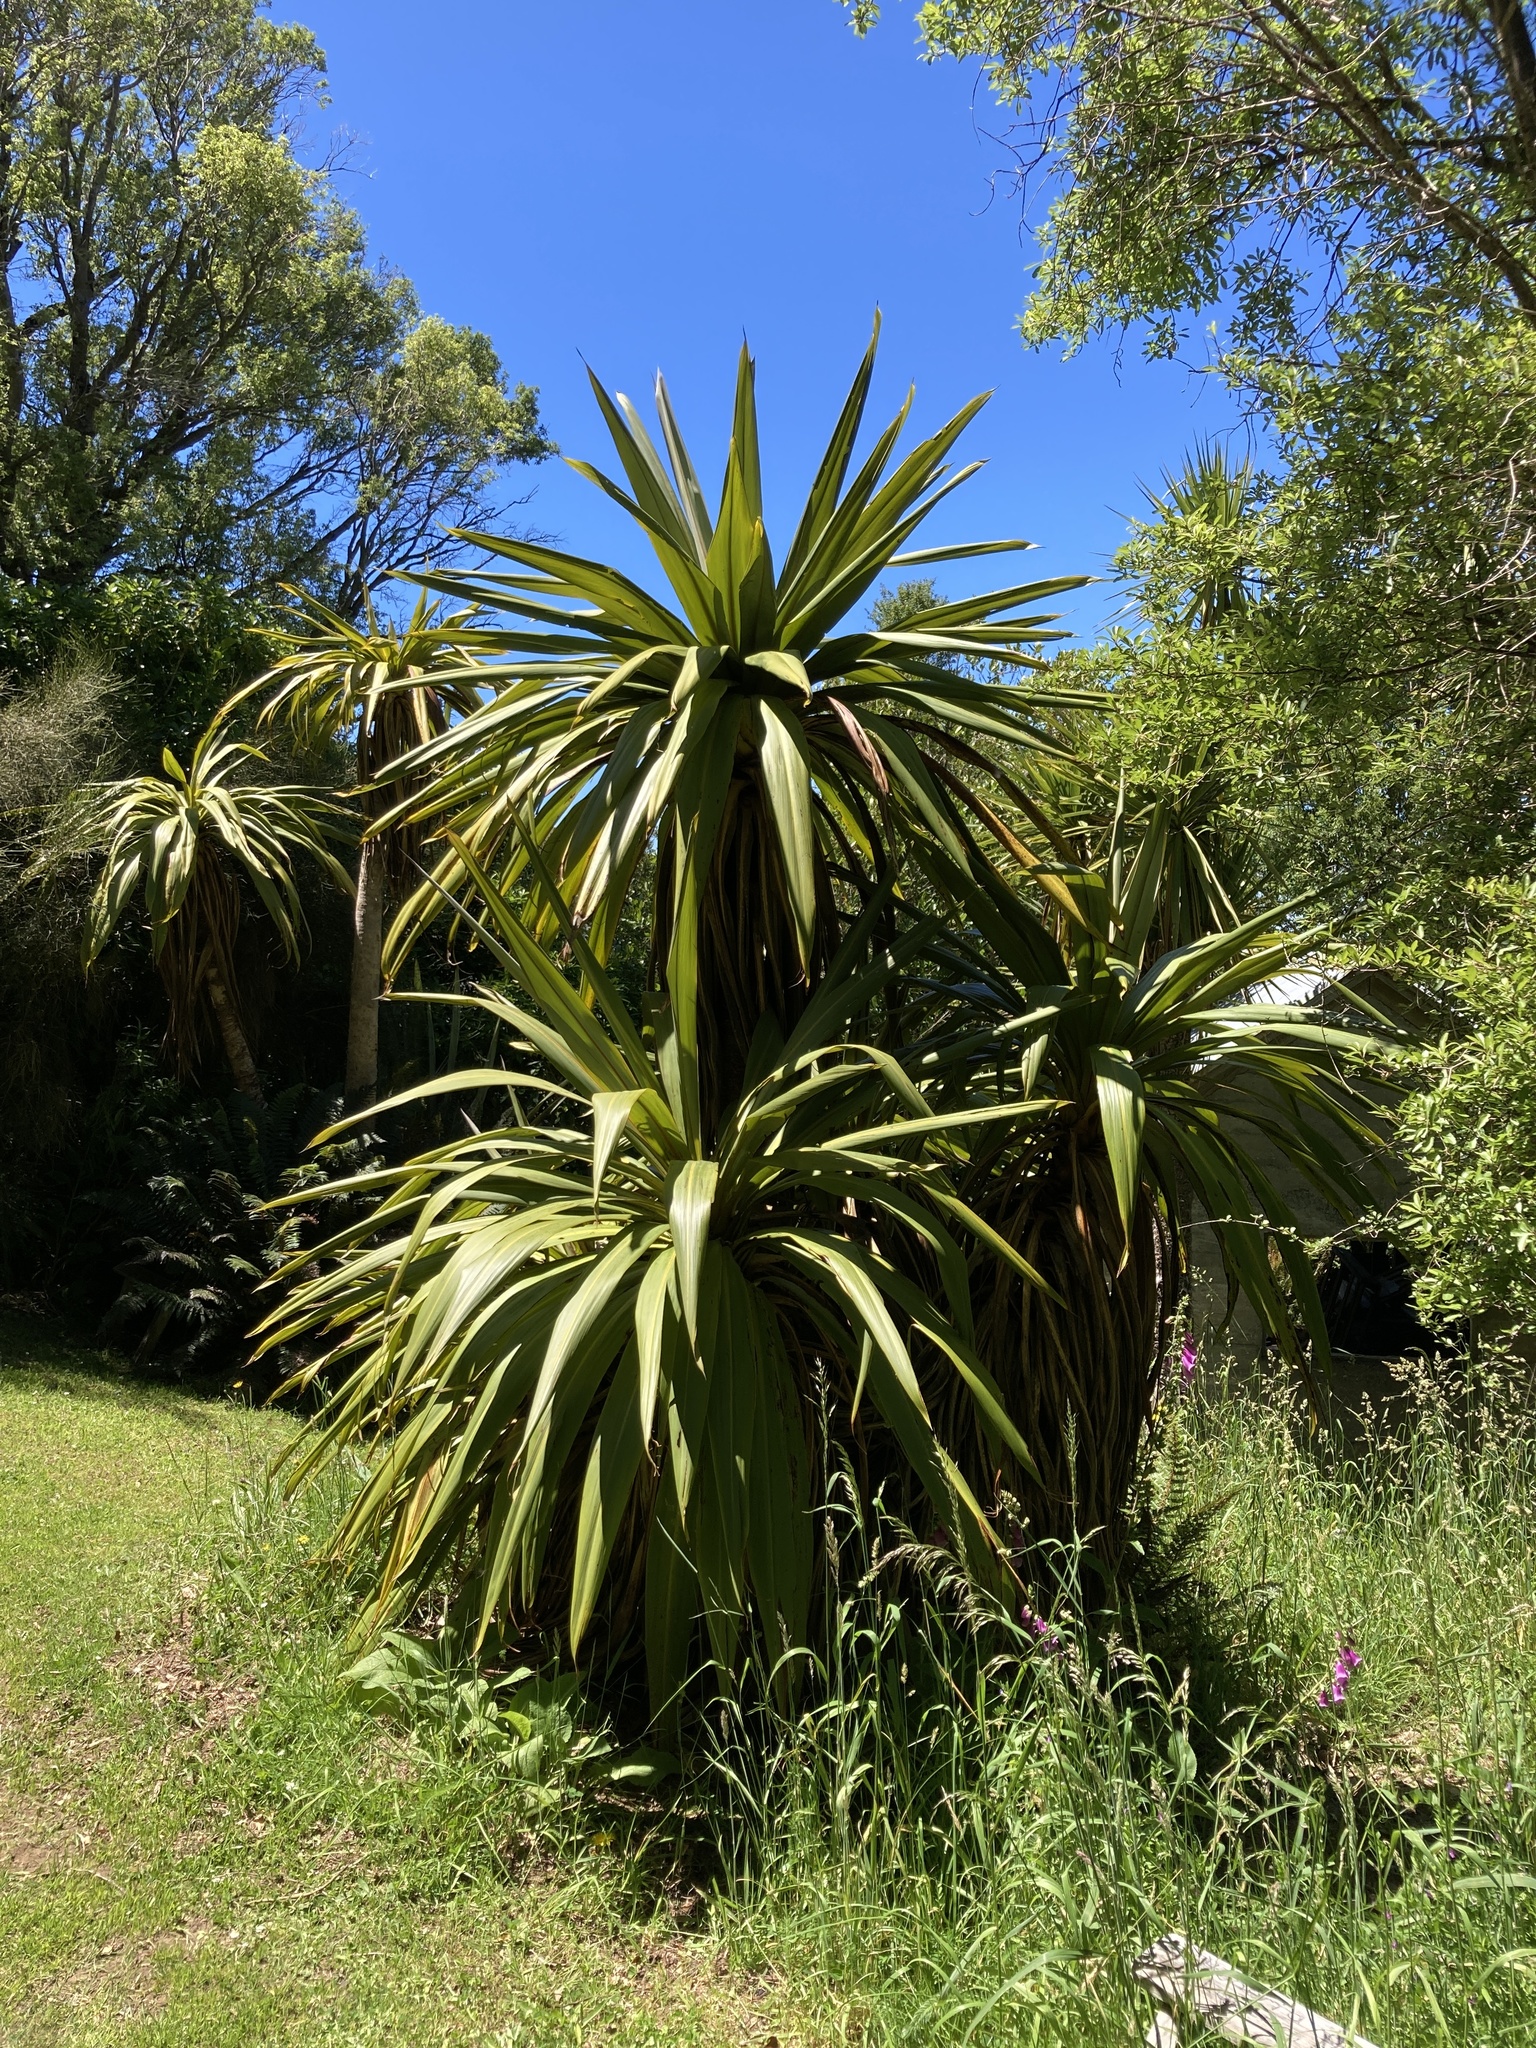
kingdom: Plantae
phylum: Tracheophyta
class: Liliopsida
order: Asparagales
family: Asparagaceae
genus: Cordyline
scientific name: Cordyline indivisa
